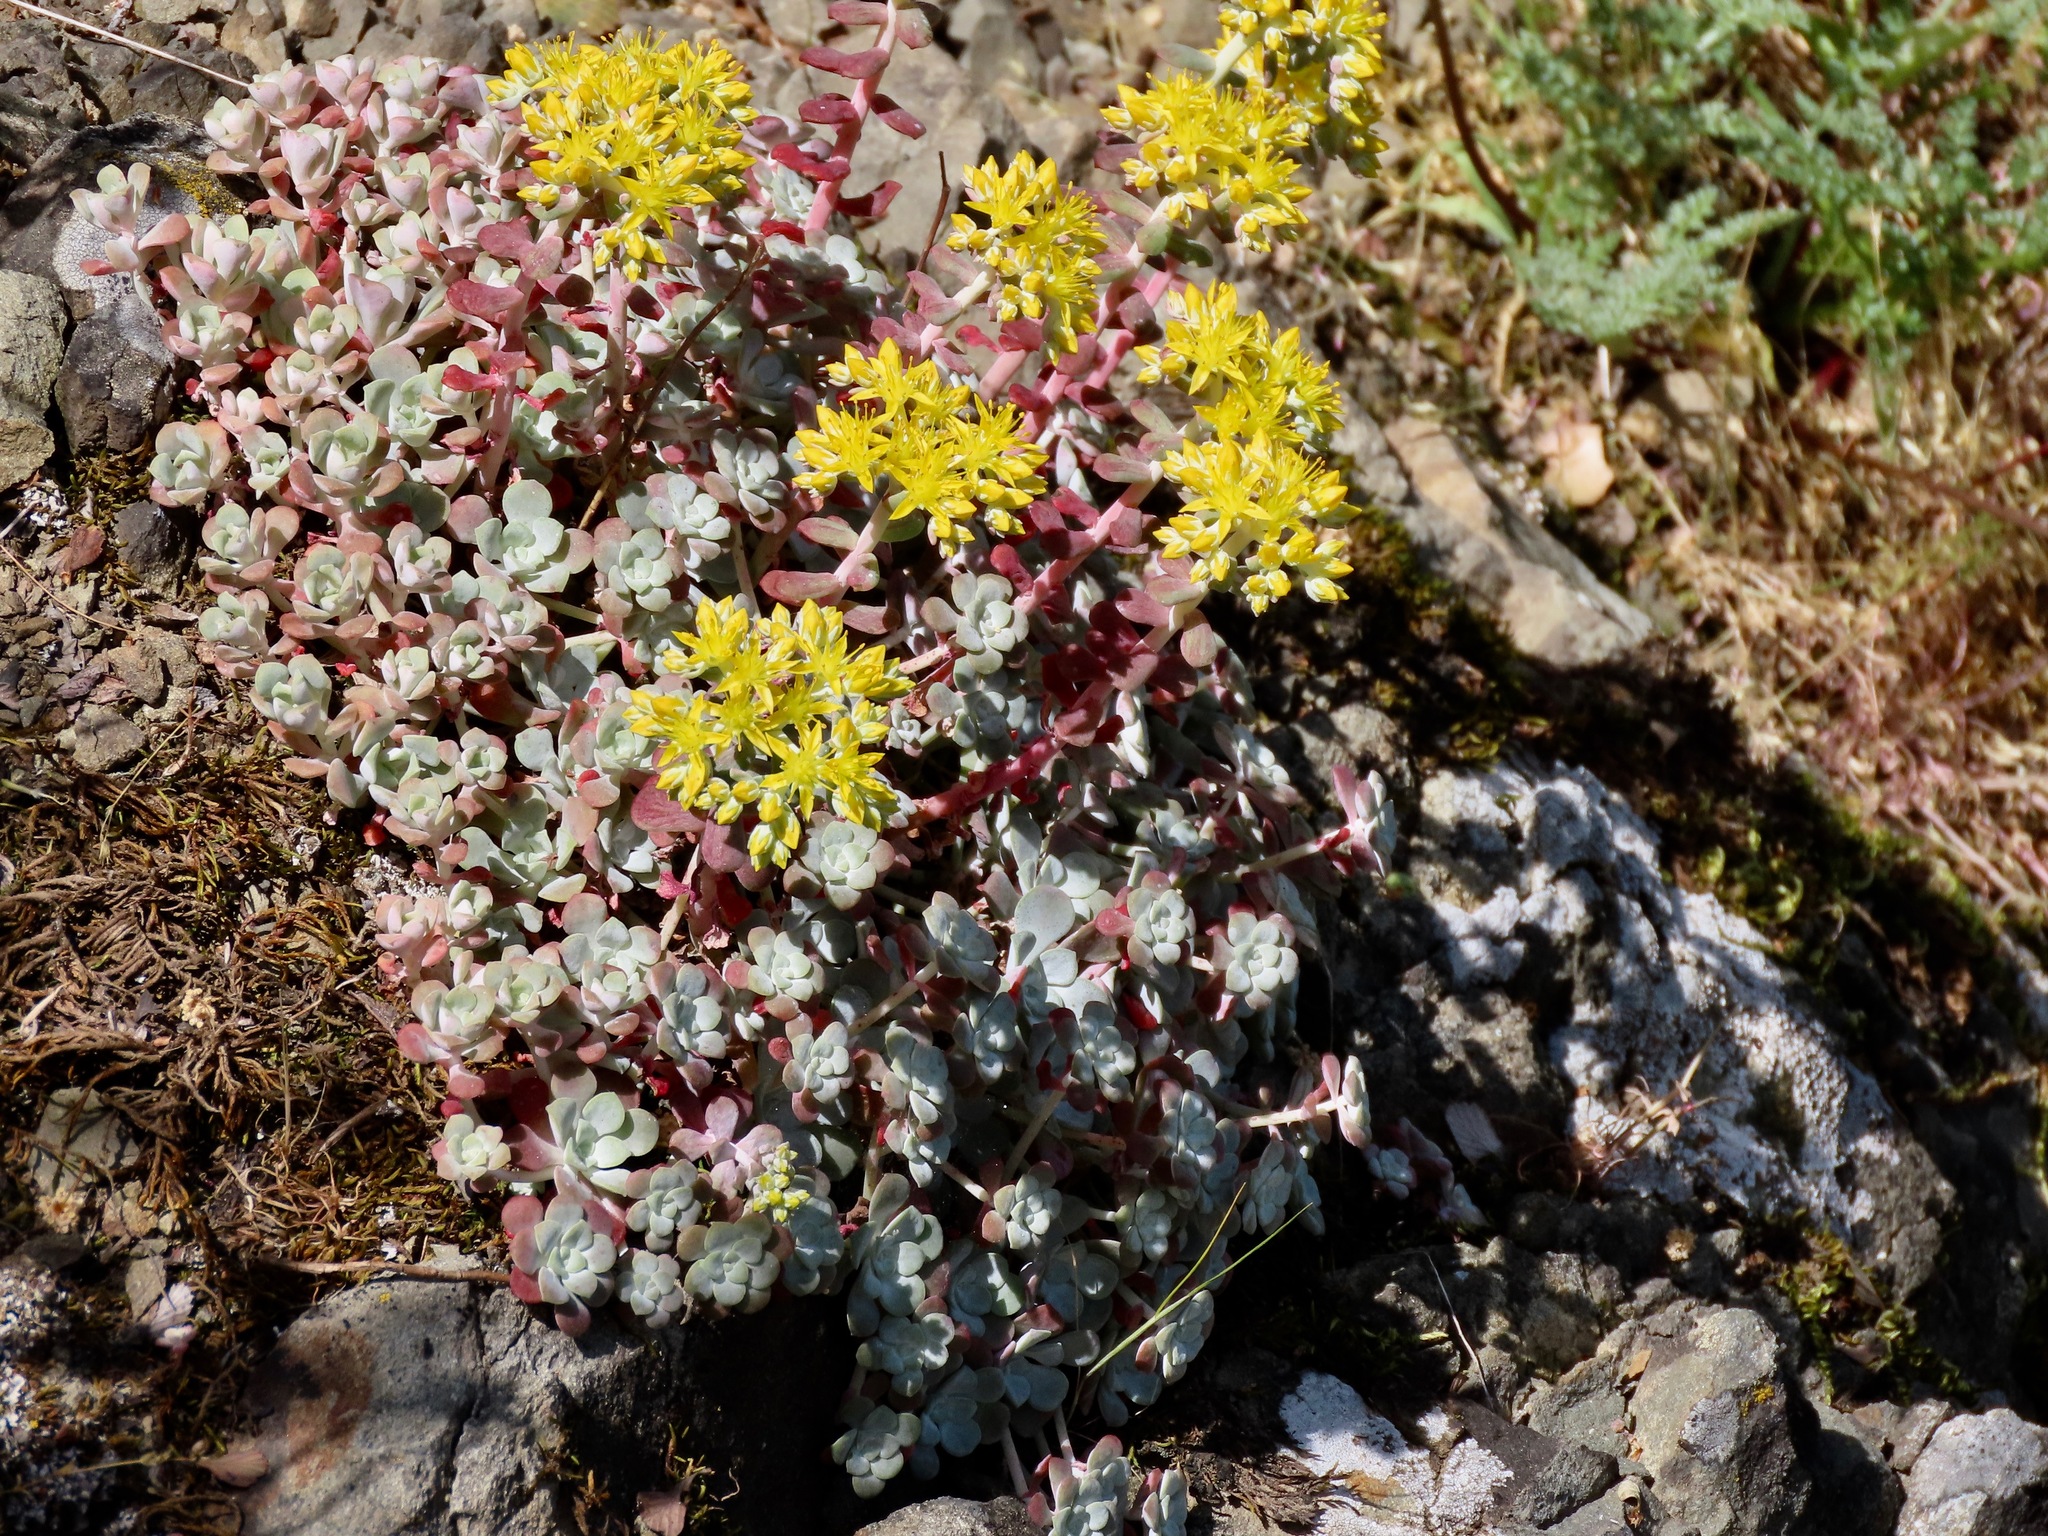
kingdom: Plantae
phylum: Tracheophyta
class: Magnoliopsida
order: Saxifragales
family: Crassulaceae
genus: Sedum
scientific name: Sedum spathulifolium
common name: Colorado stonecrop
